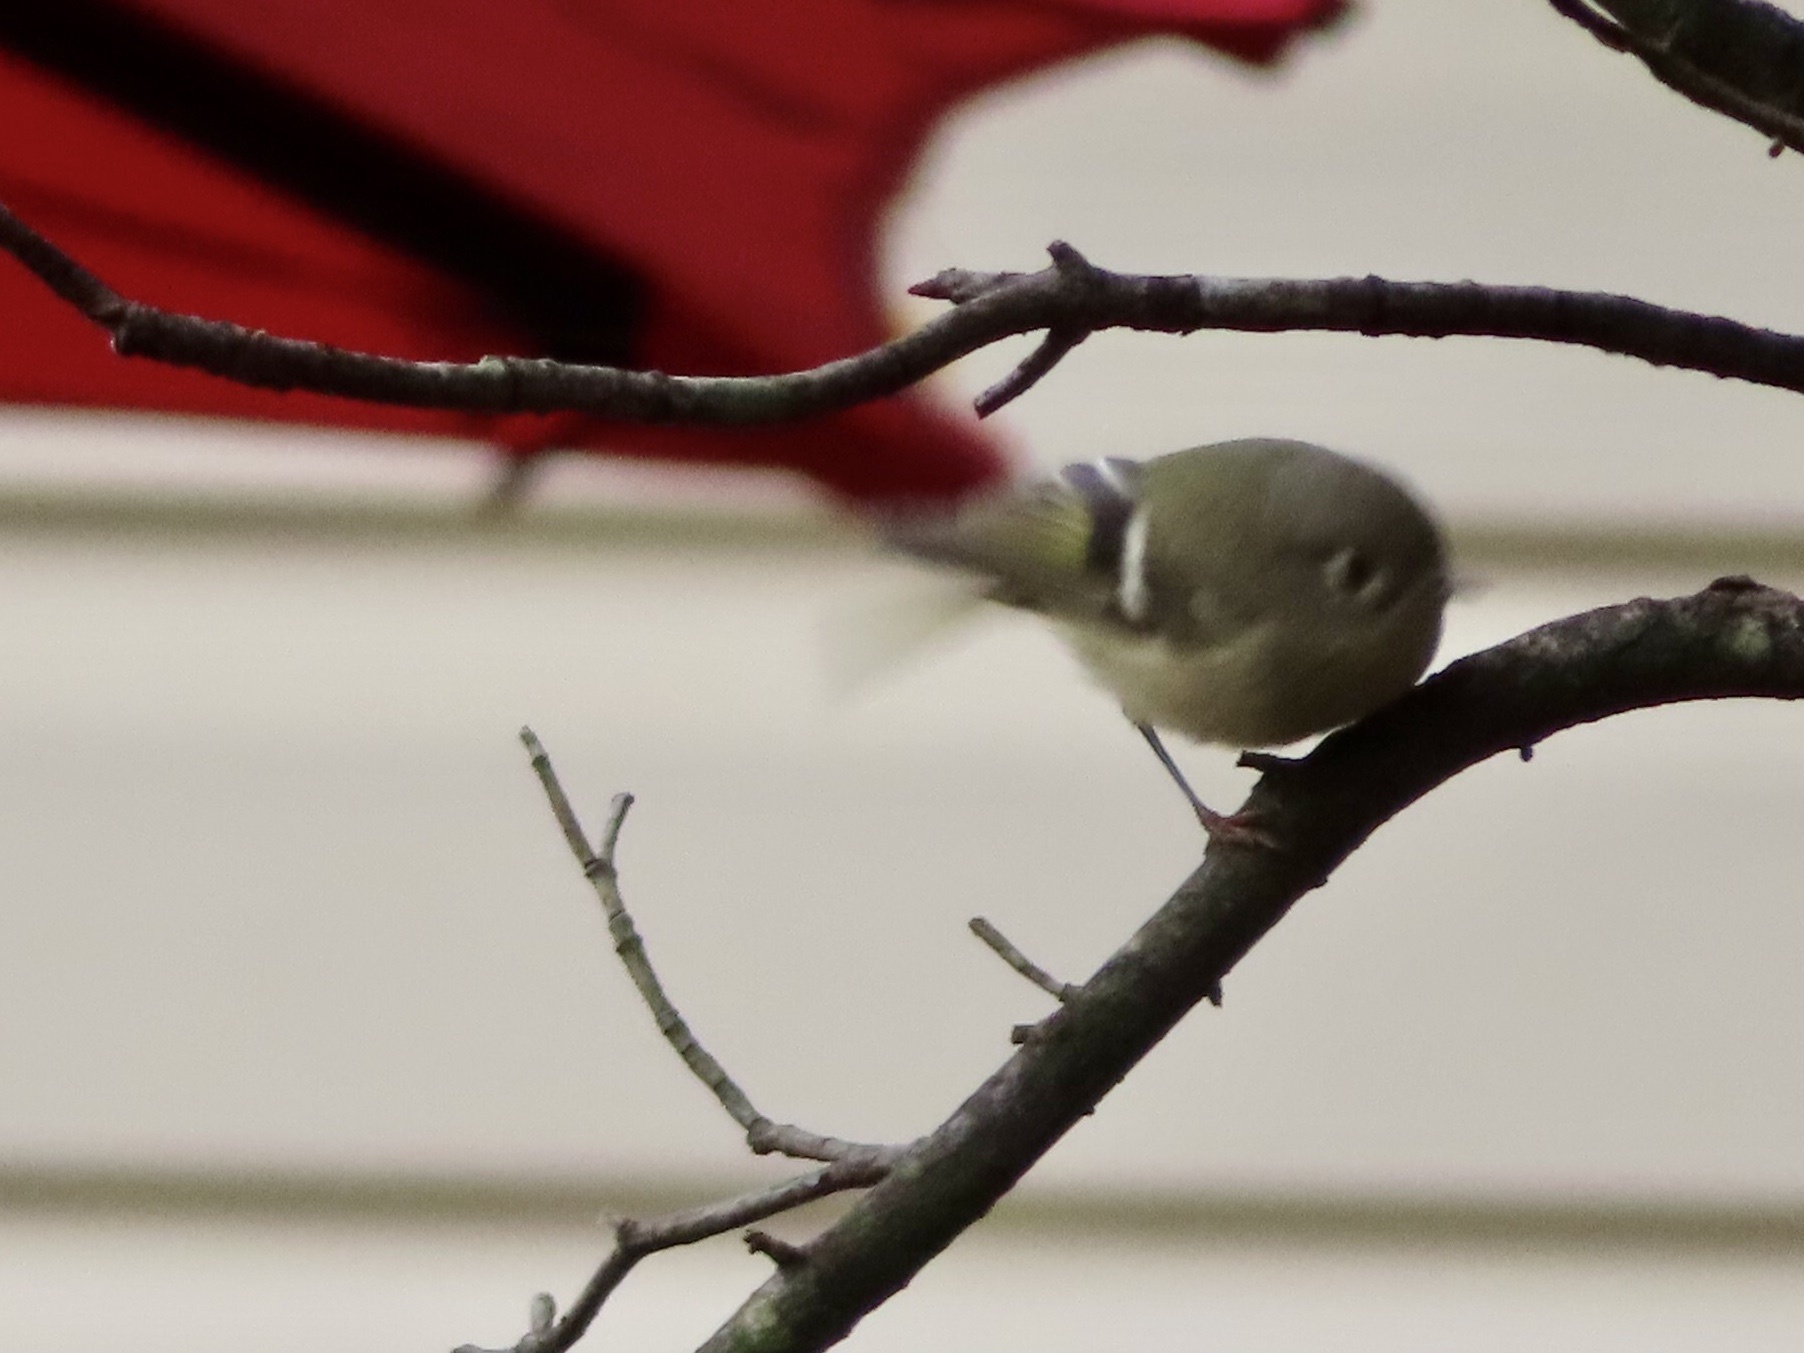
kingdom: Animalia
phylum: Chordata
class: Aves
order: Passeriformes
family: Regulidae
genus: Regulus
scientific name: Regulus calendula
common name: Ruby-crowned kinglet
